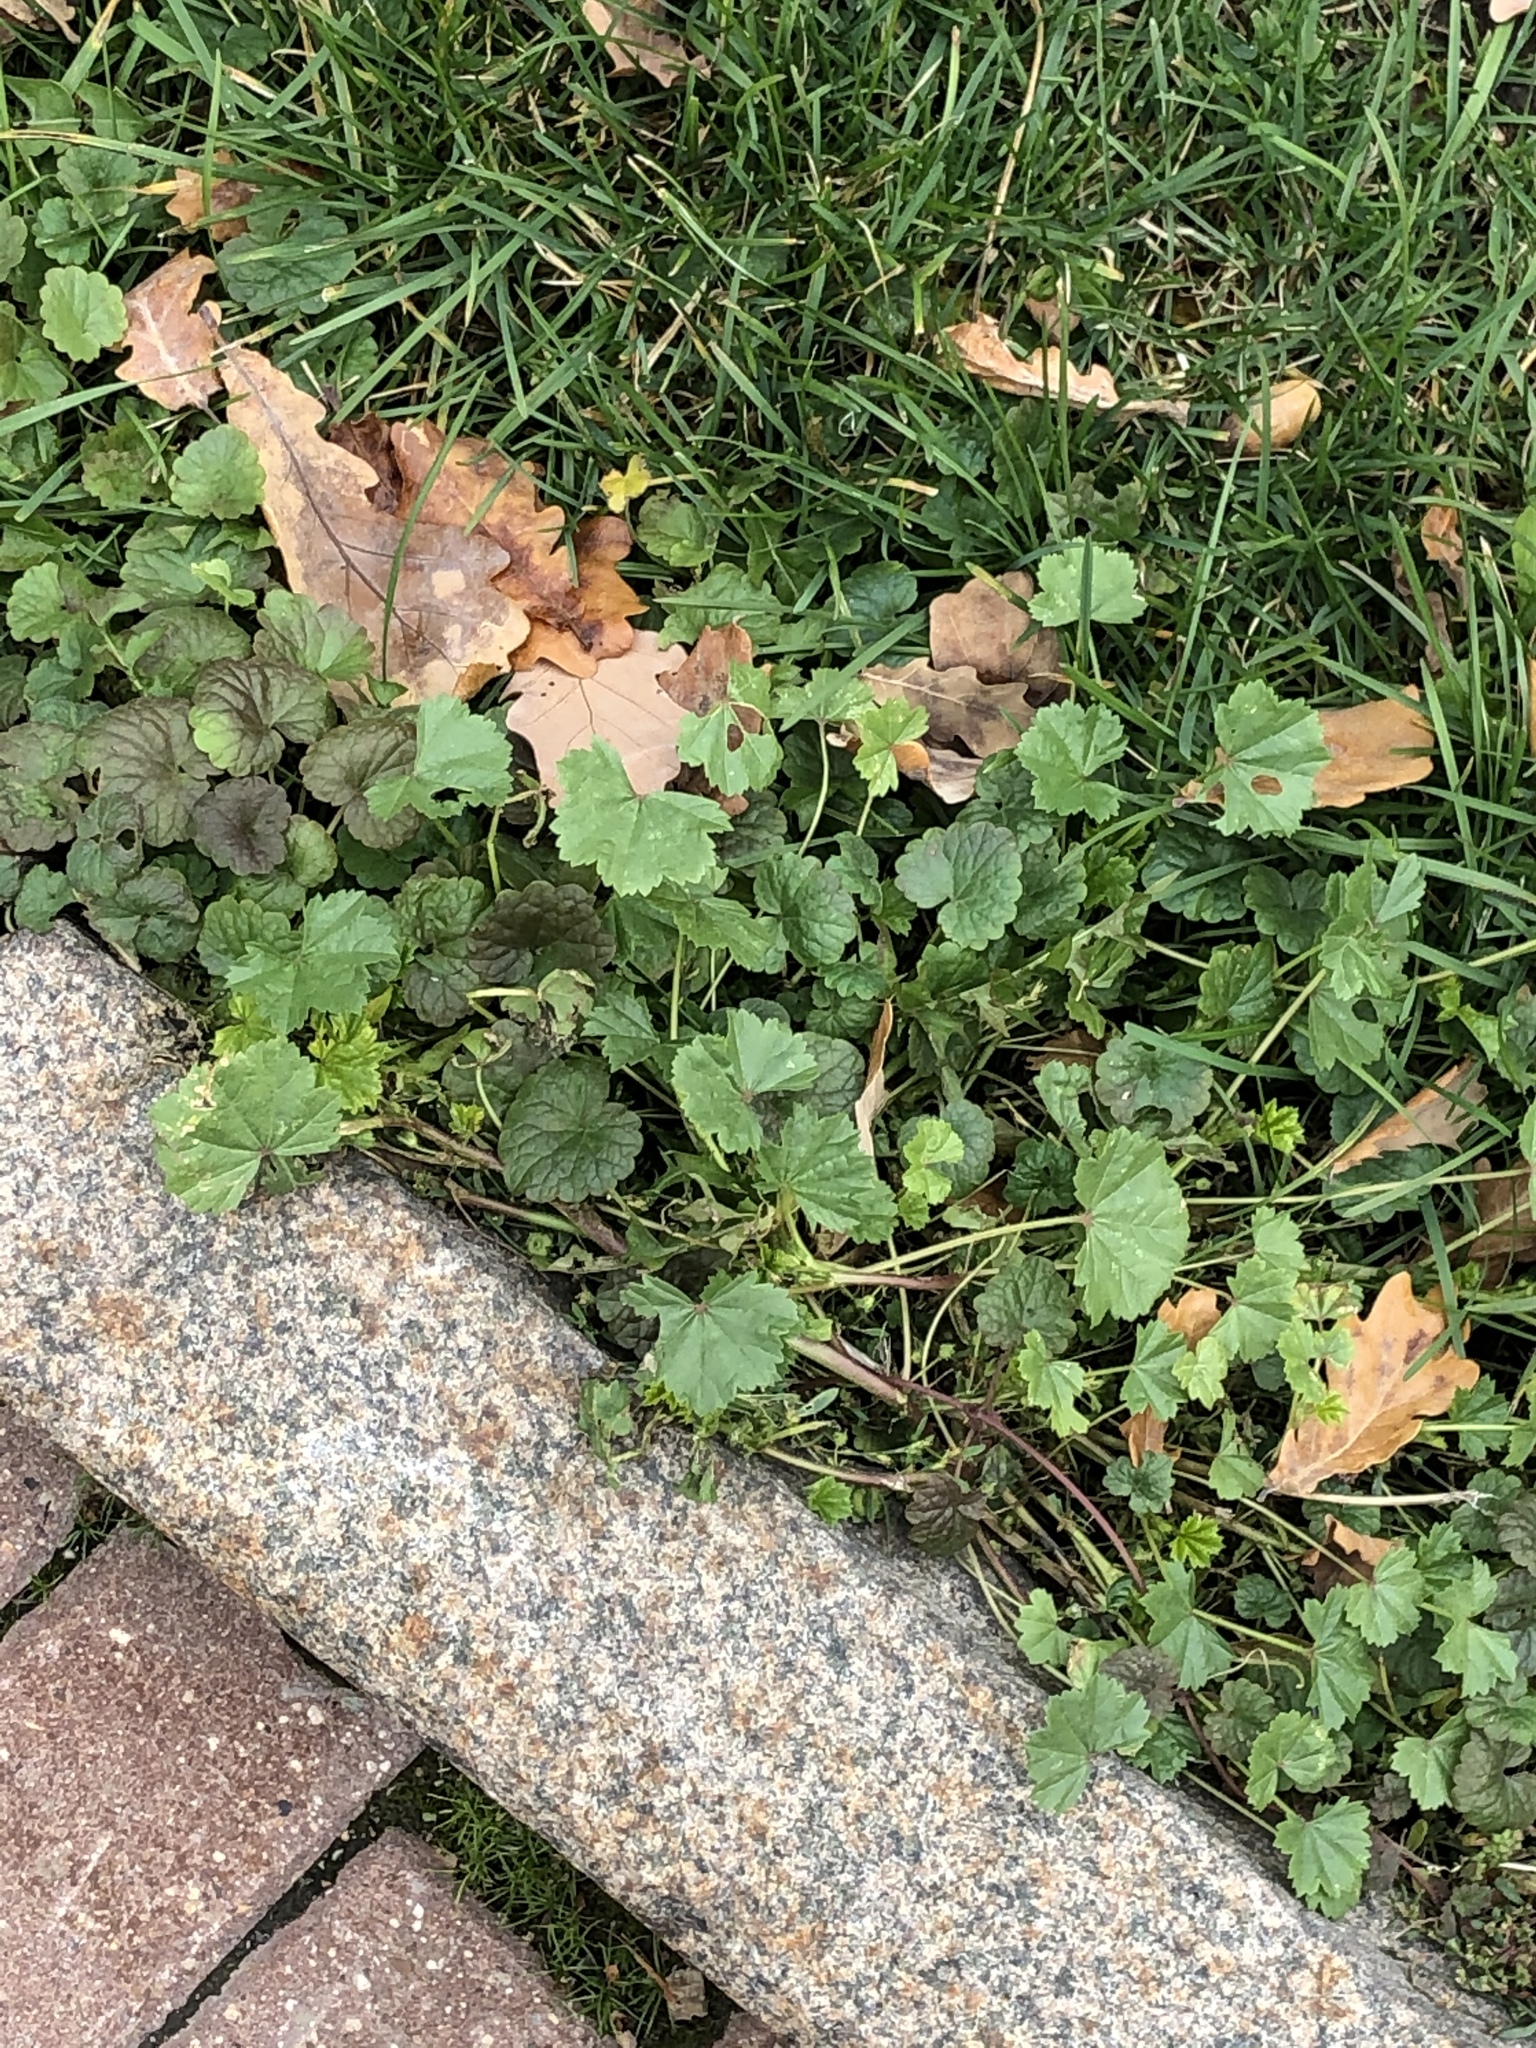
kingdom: Plantae
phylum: Tracheophyta
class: Magnoliopsida
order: Malvales
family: Malvaceae
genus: Malva
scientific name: Malva pusilla
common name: Small mallow
